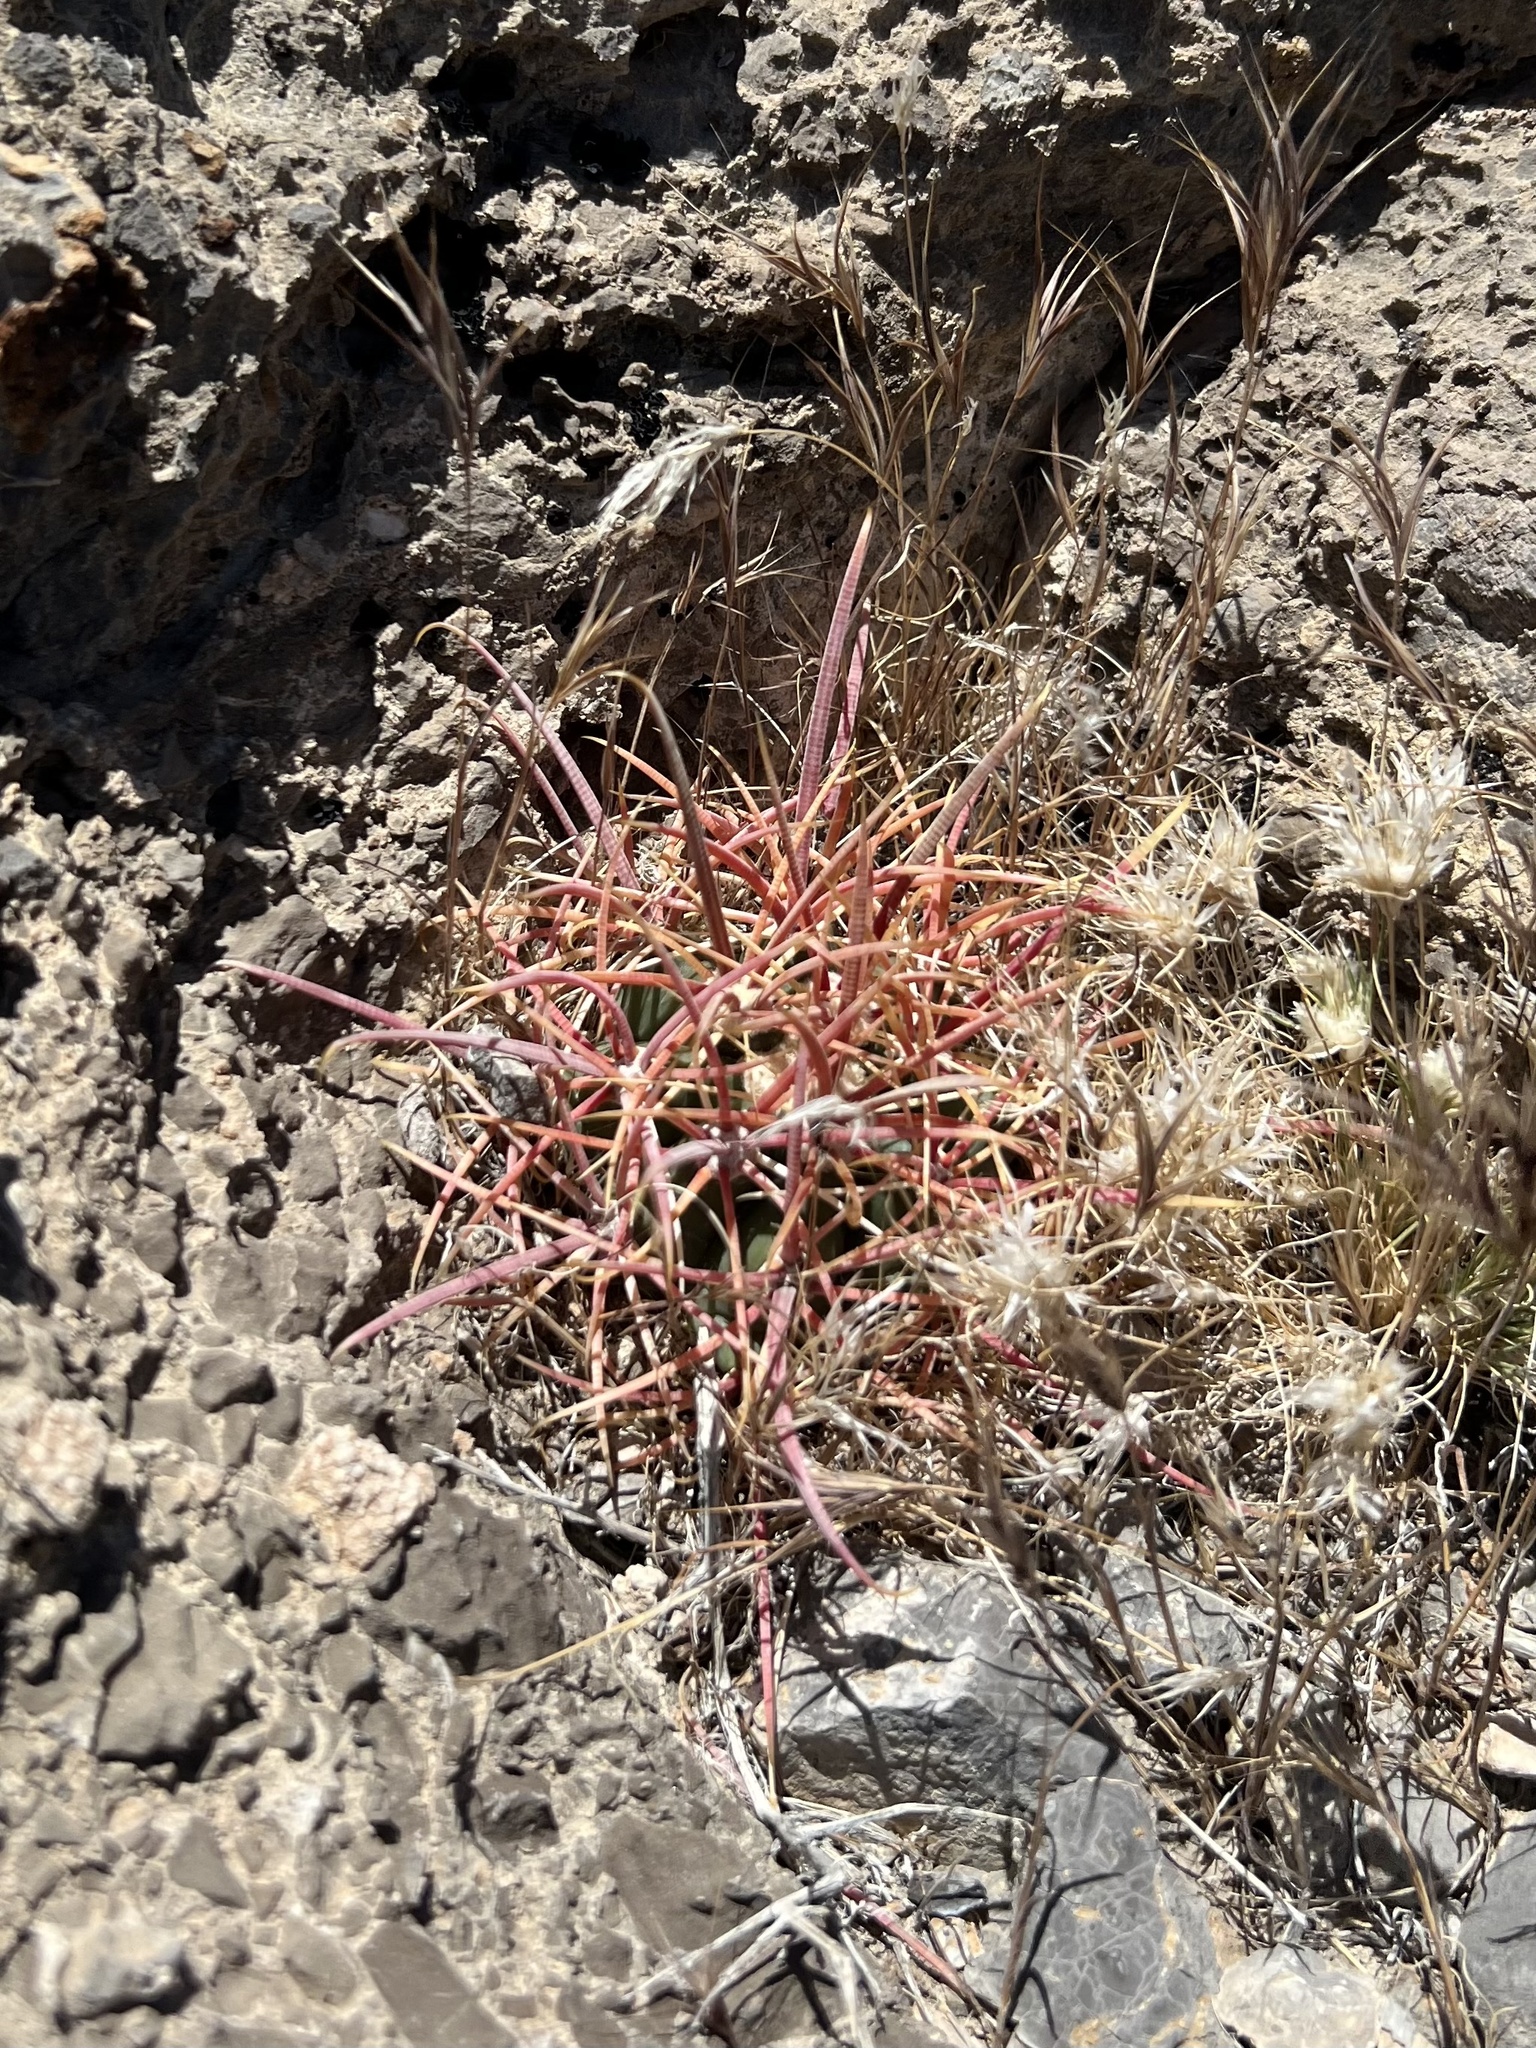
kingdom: Plantae
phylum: Tracheophyta
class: Magnoliopsida
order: Caryophyllales
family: Cactaceae
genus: Ferocactus
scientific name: Ferocactus cylindraceus
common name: California barrel cactus
